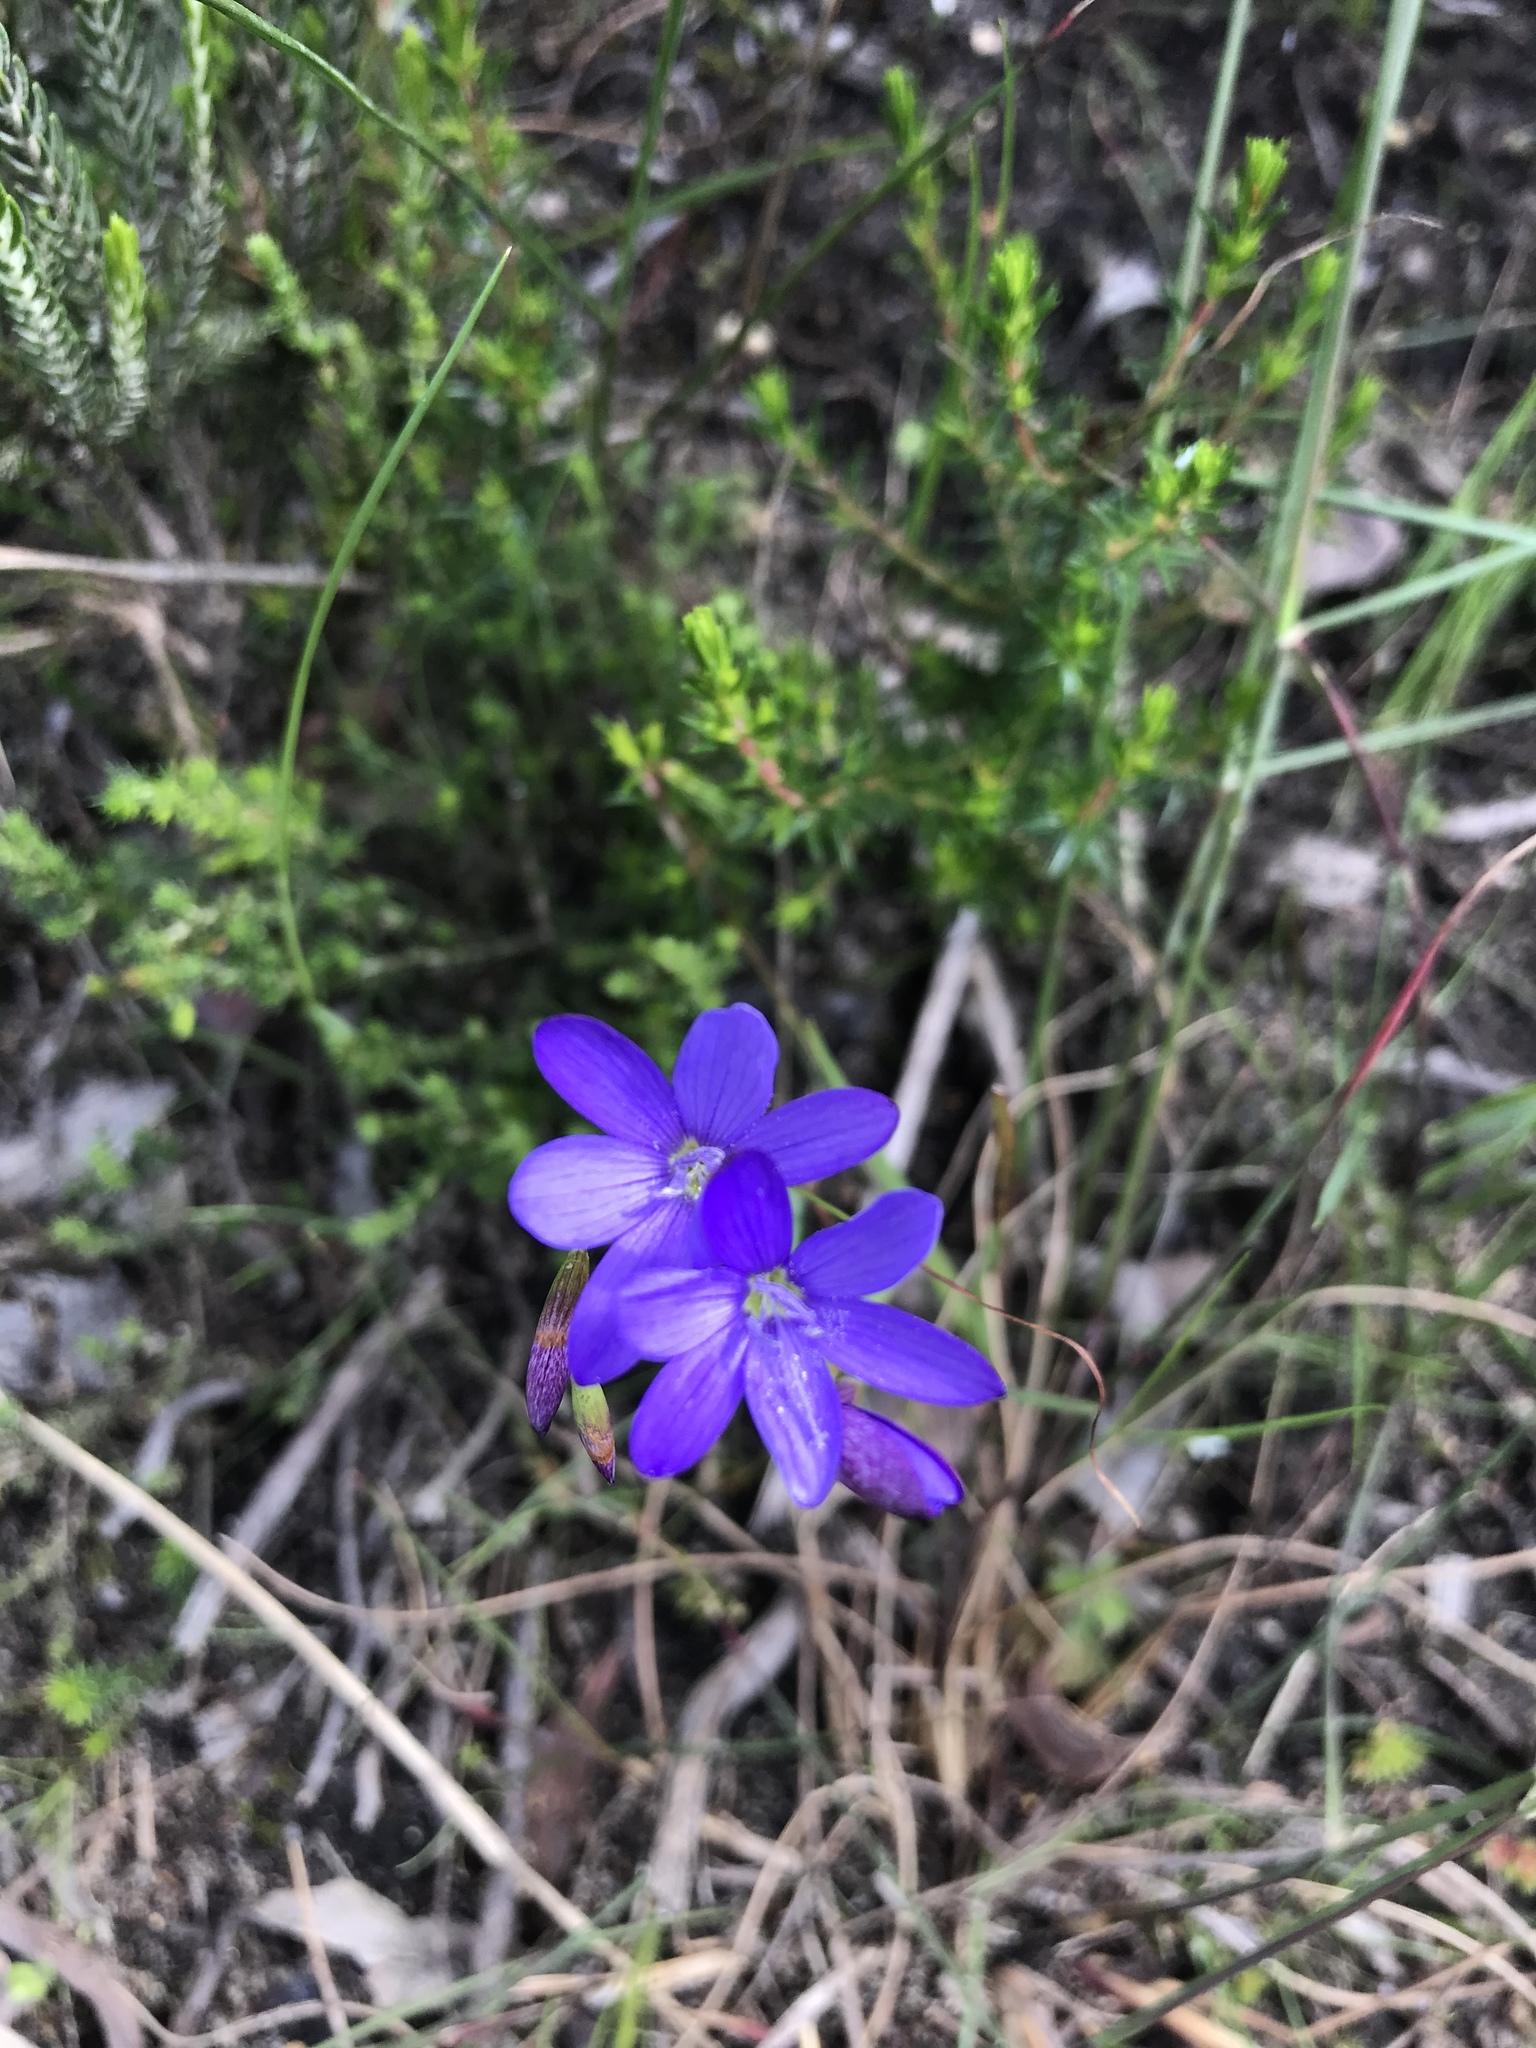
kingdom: Plantae
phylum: Tracheophyta
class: Liliopsida
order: Asparagales
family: Iridaceae
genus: Geissorhiza
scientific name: Geissorhiza aspera
